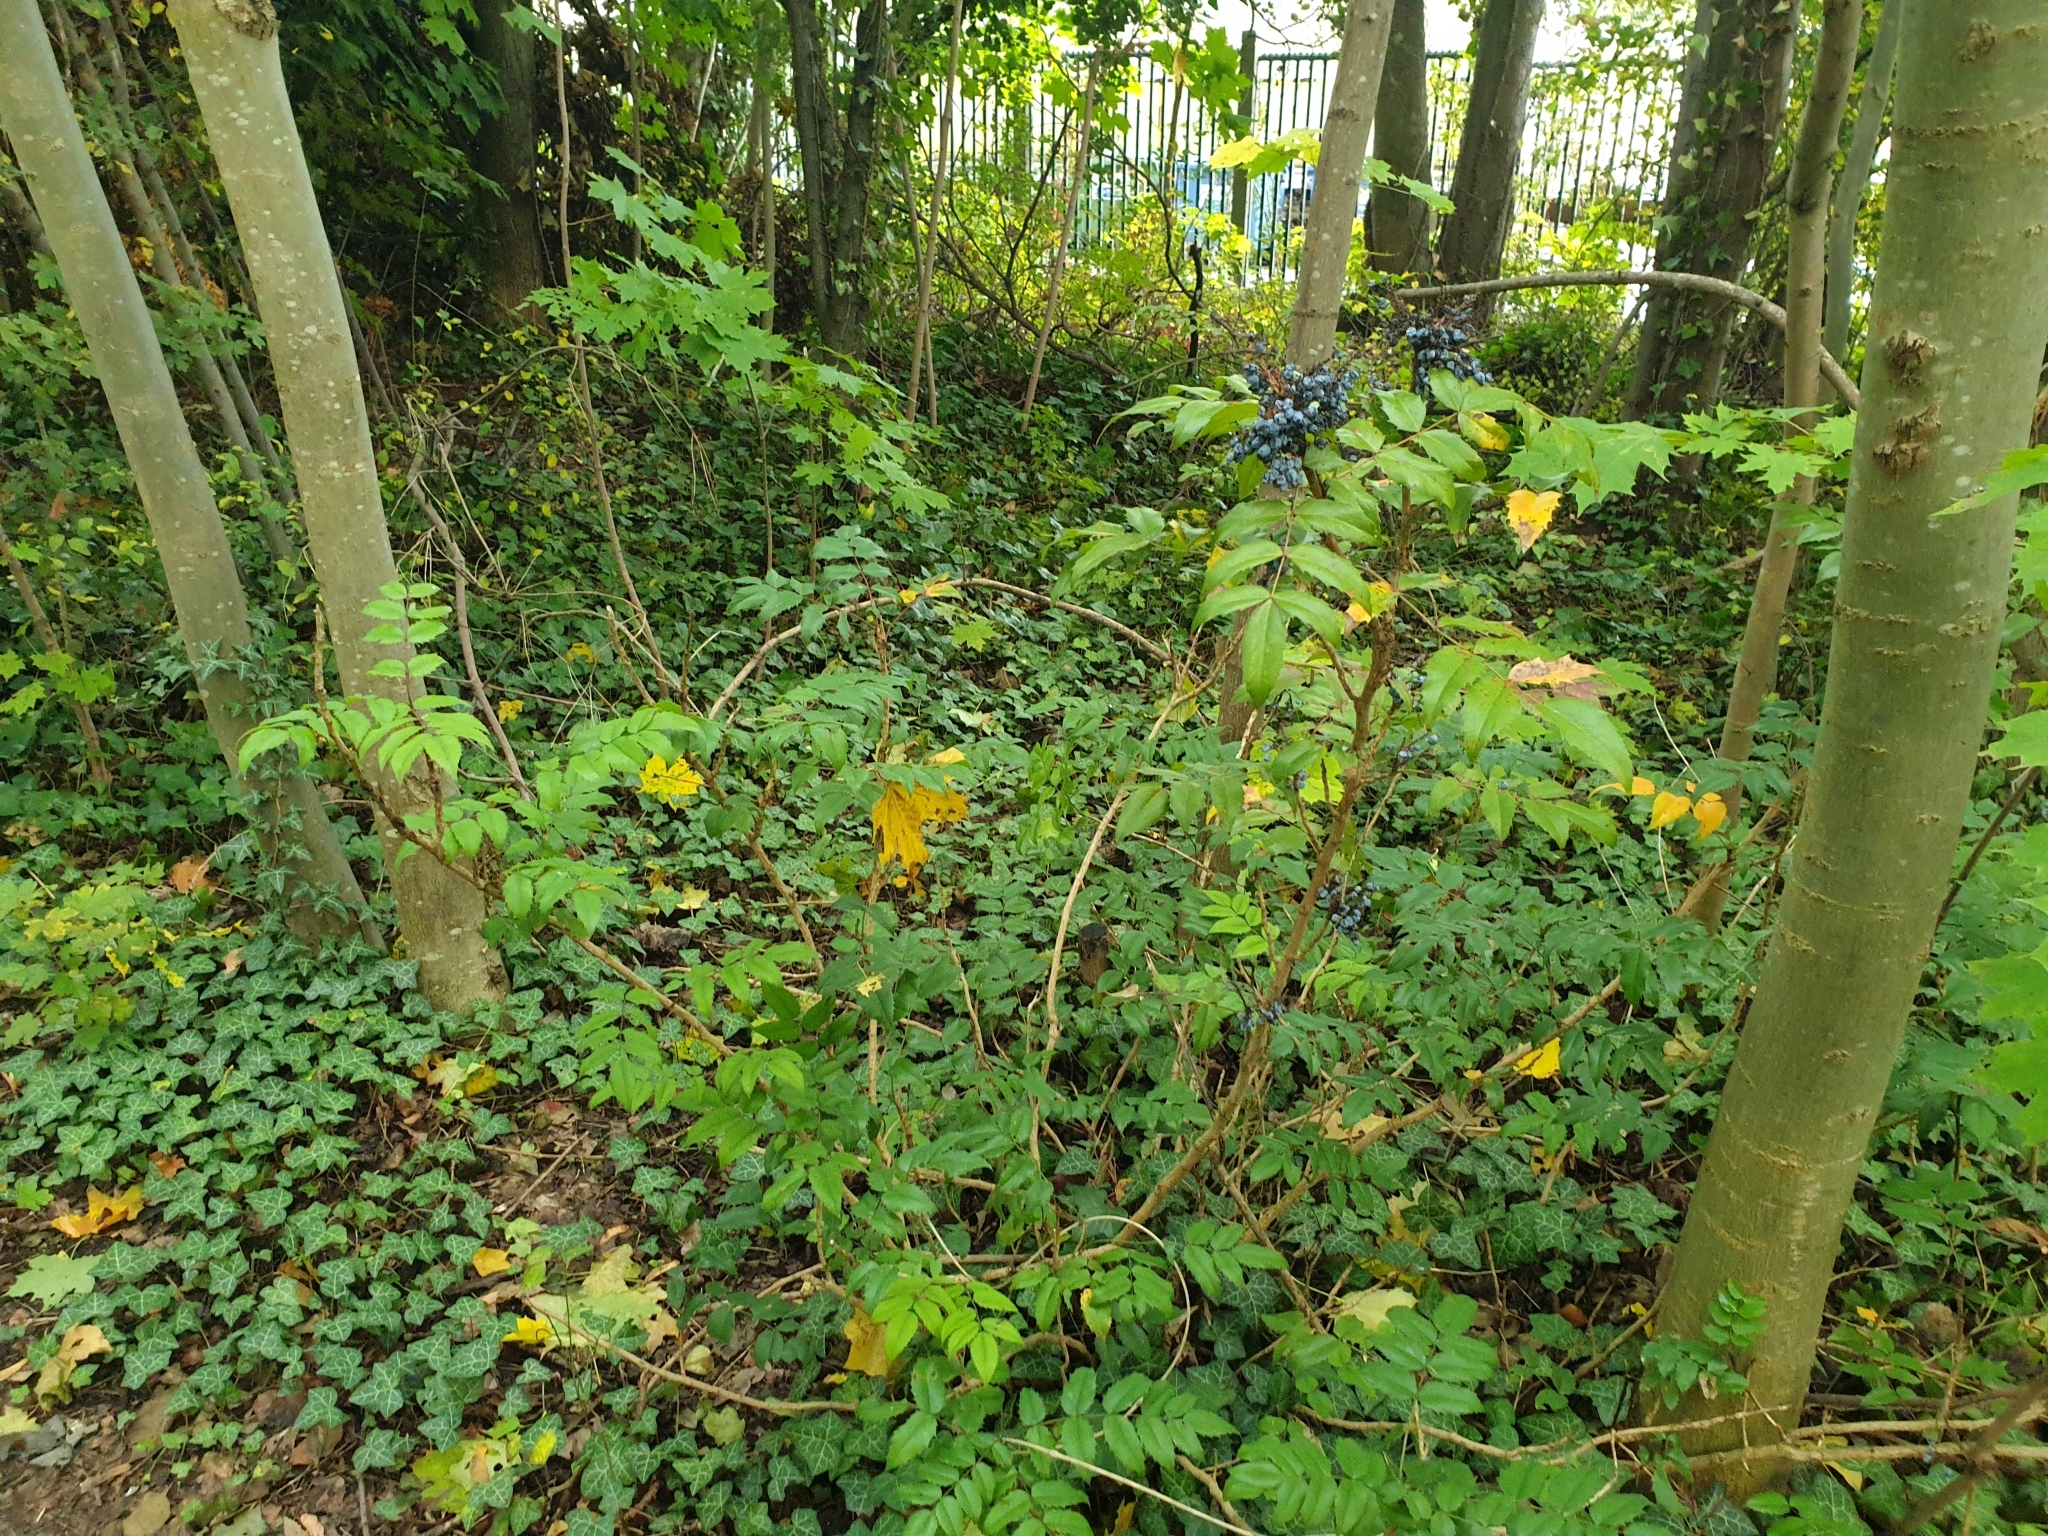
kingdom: Plantae
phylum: Tracheophyta
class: Magnoliopsida
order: Ranunculales
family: Berberidaceae
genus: Mahonia
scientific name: Mahonia aquifolium
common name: Oregon-grape
